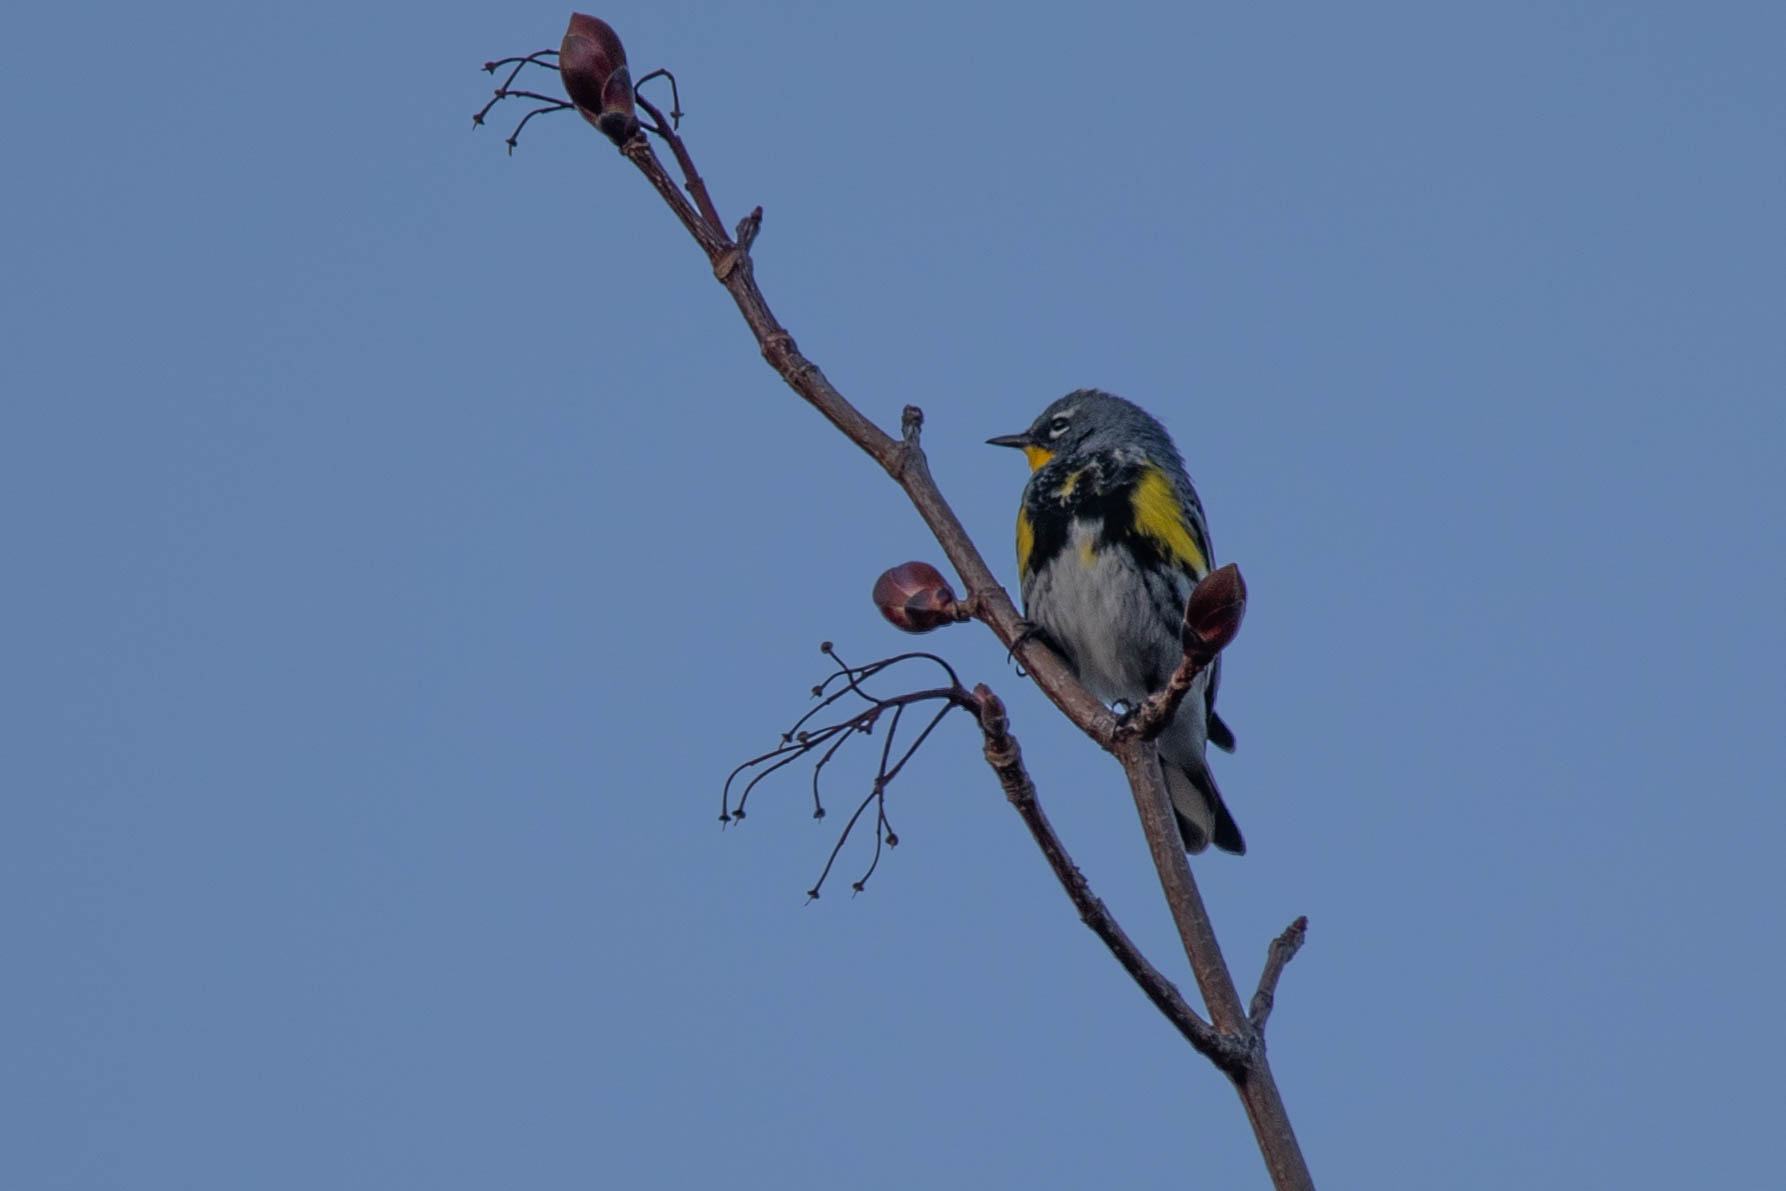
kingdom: Animalia
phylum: Chordata
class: Aves
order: Passeriformes
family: Parulidae
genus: Setophaga
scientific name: Setophaga auduboni
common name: Audubon's warbler
